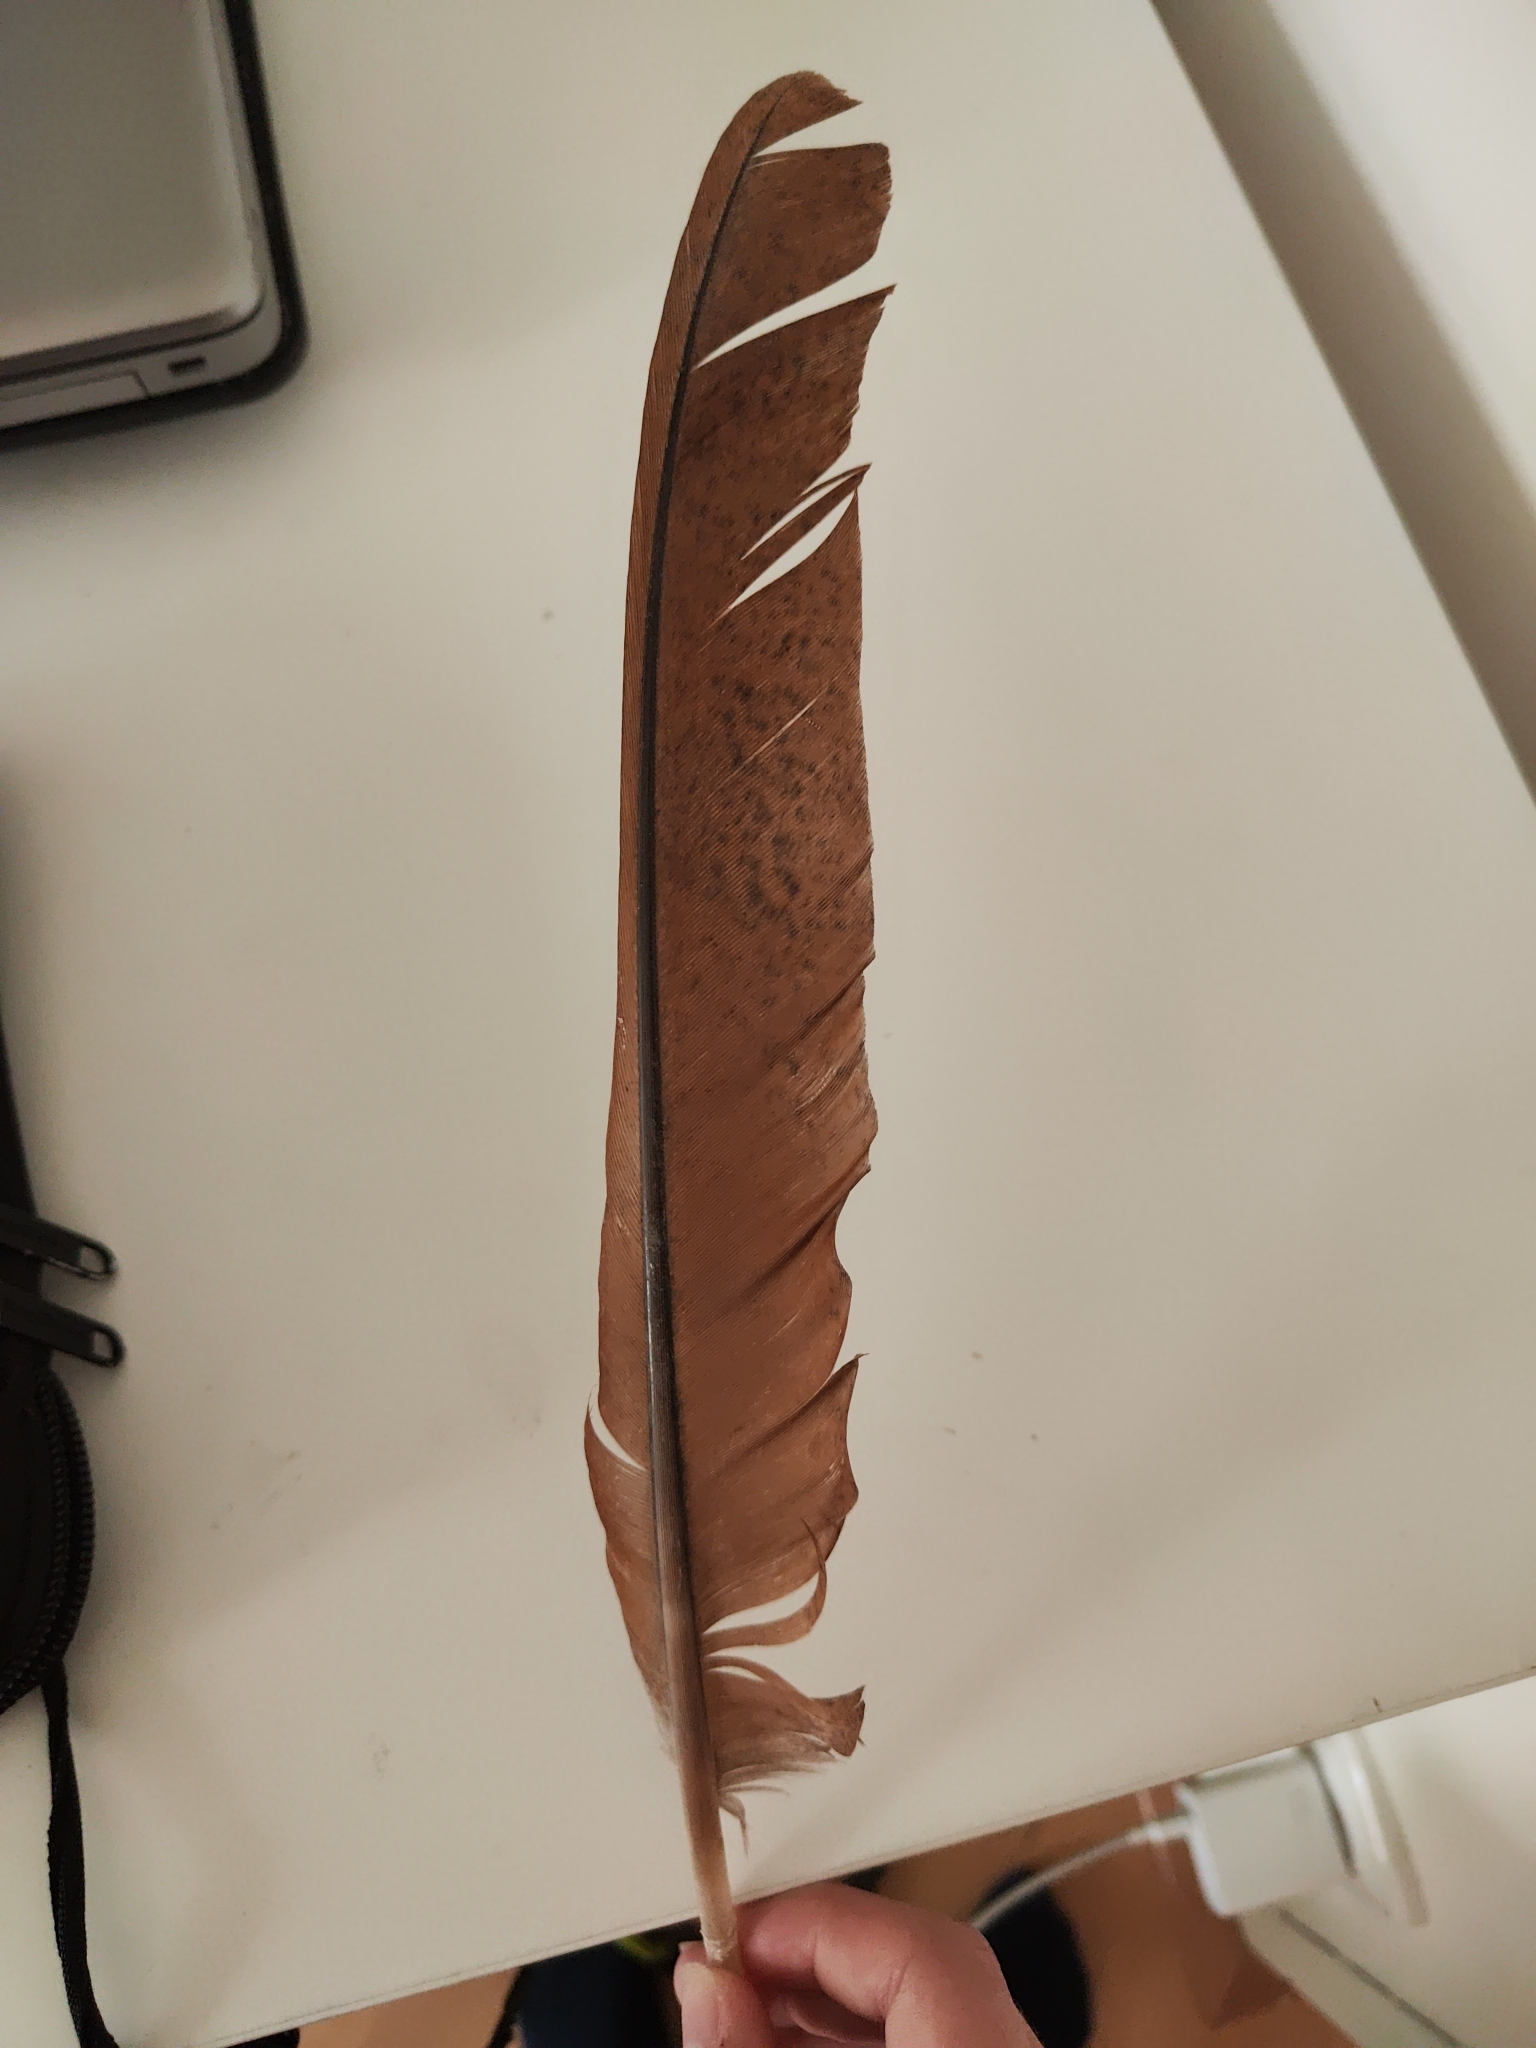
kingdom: Animalia
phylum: Chordata
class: Aves
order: Galliformes
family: Phasianidae
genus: Pavo
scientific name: Pavo cristatus
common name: Indian peafowl
